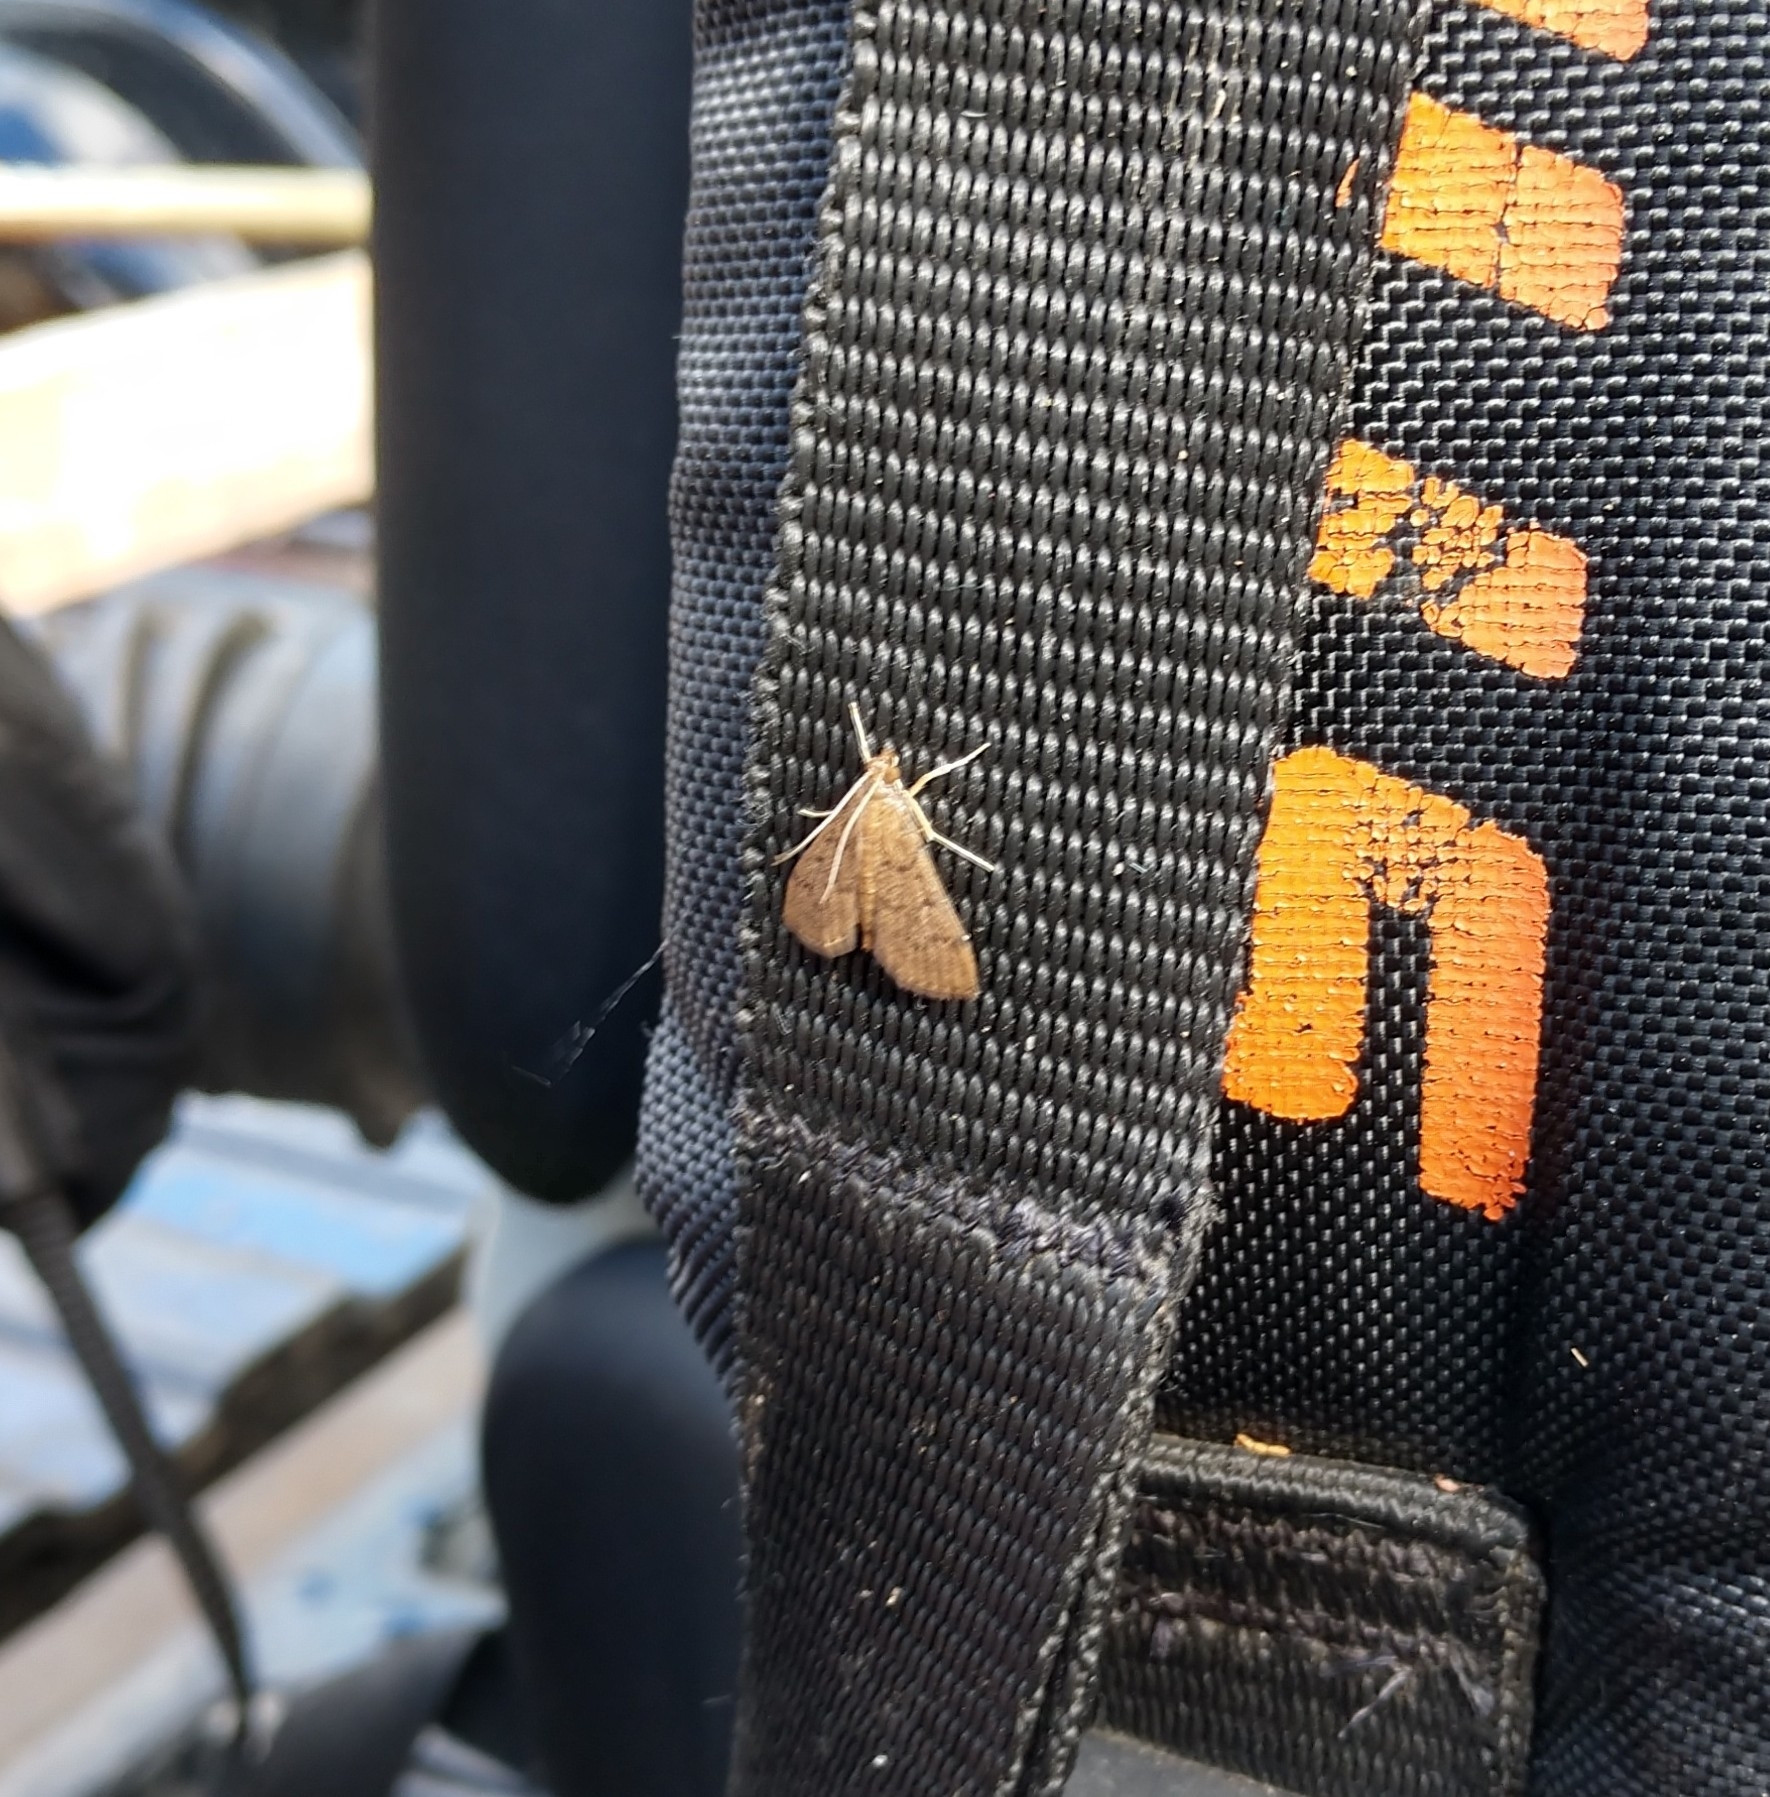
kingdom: Animalia
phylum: Arthropoda
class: Insecta
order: Lepidoptera
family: Crambidae
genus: Herpetogramma
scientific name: Herpetogramma phaeopteralis
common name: Dusky herpetogramma moth
